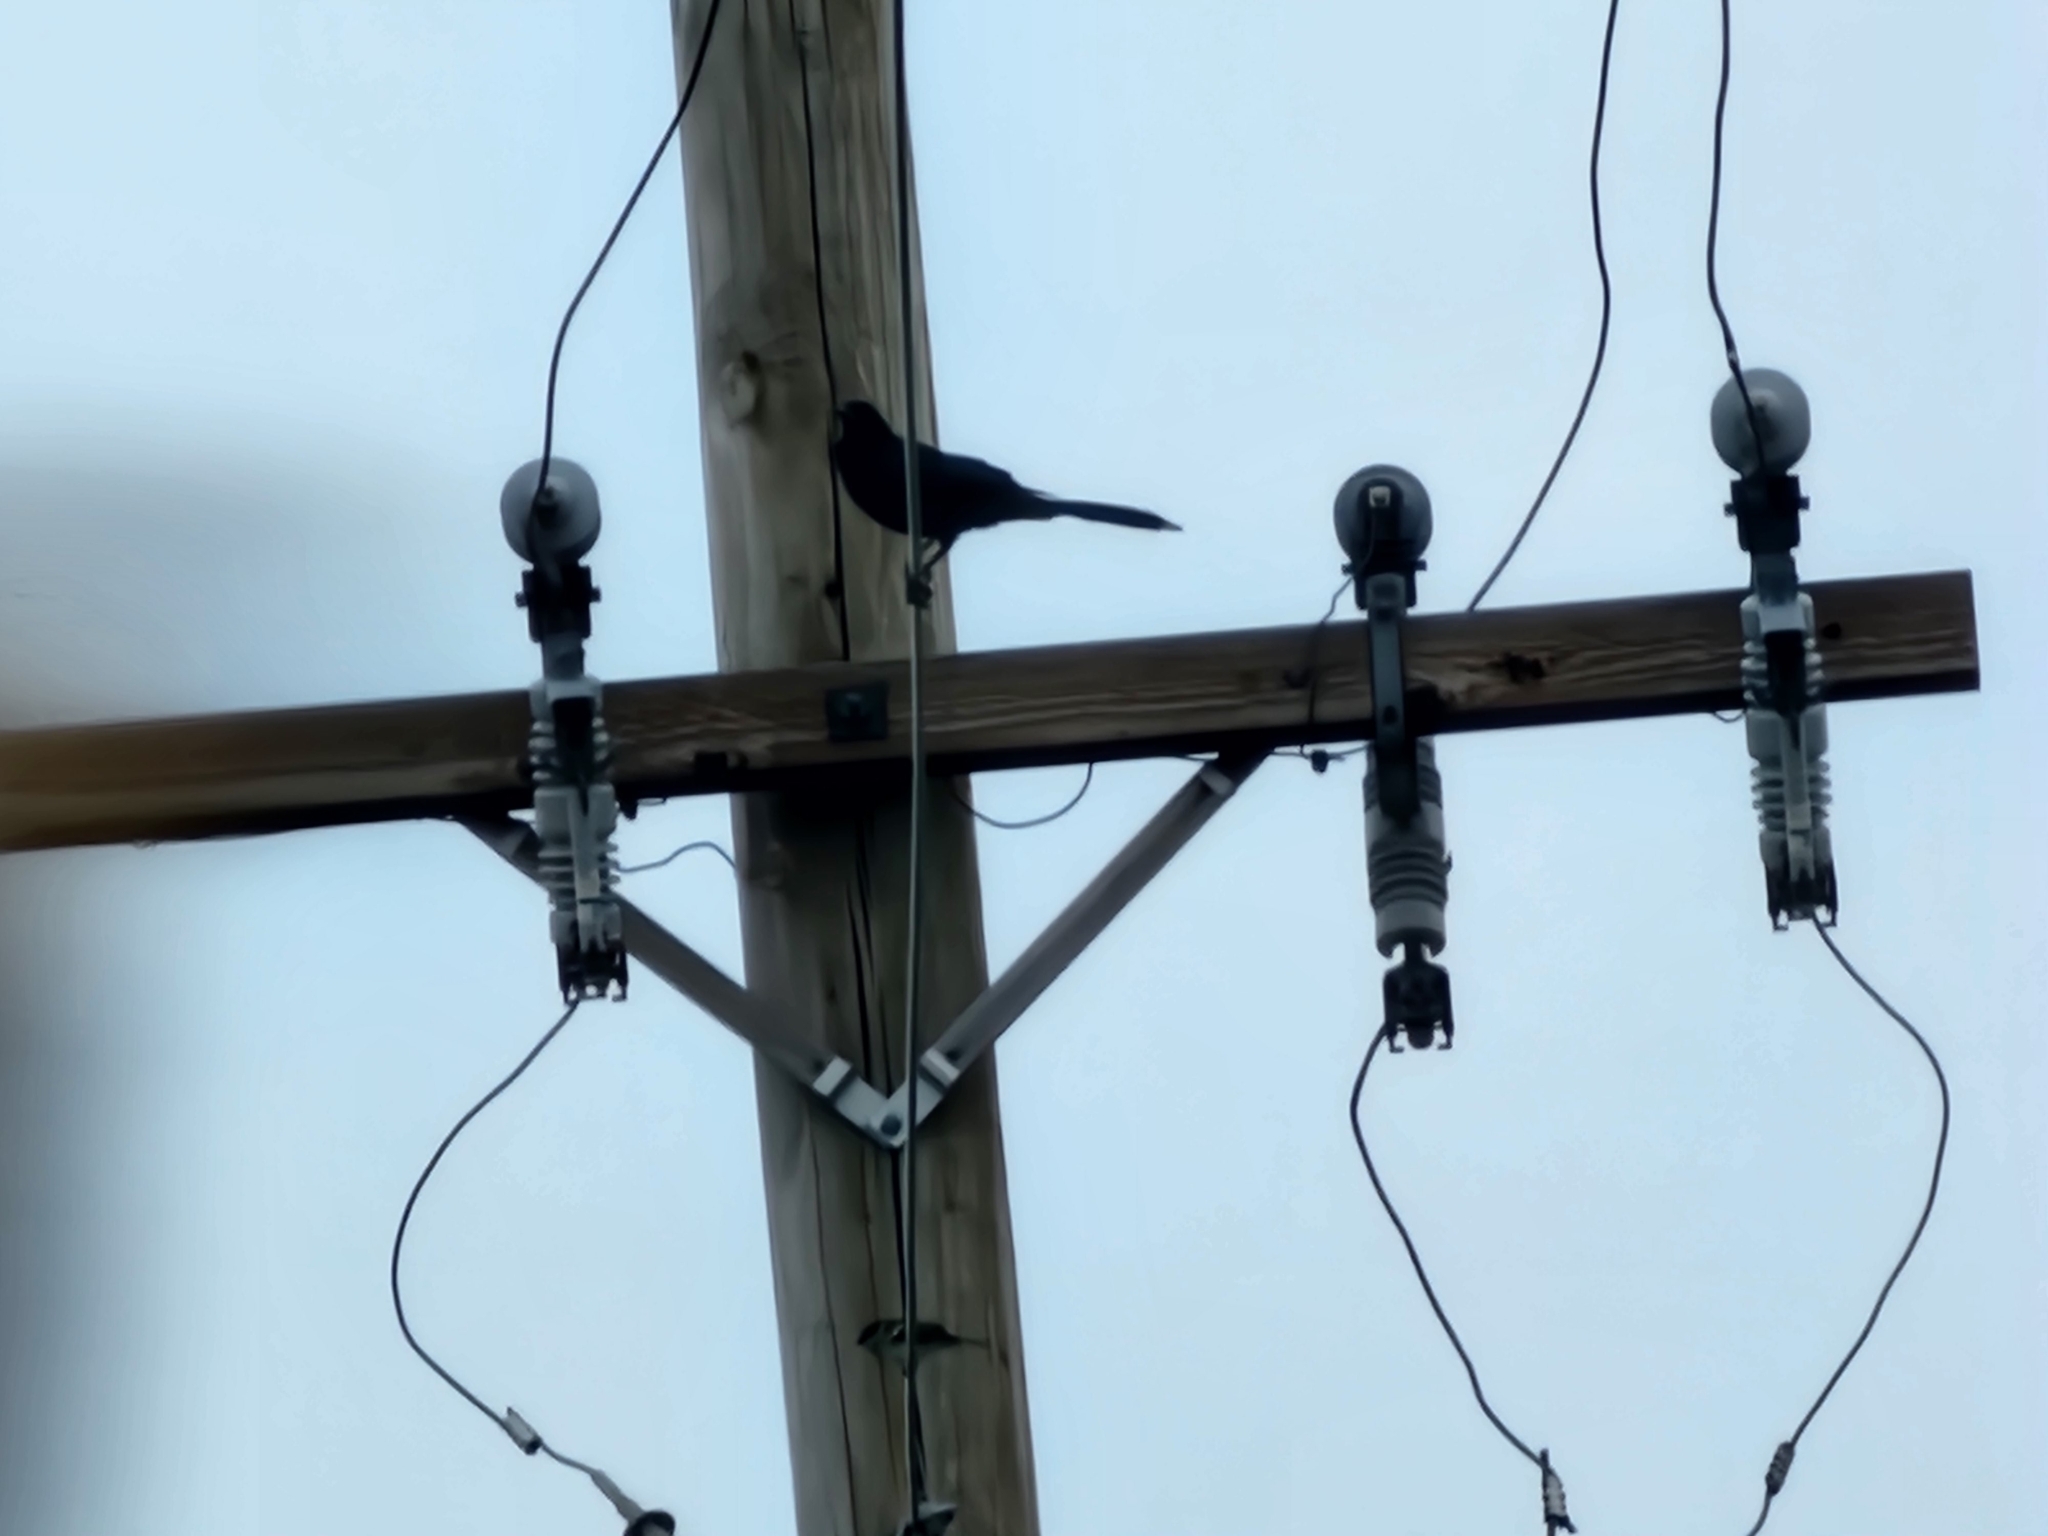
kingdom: Animalia
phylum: Chordata
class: Aves
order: Passeriformes
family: Icteridae
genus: Quiscalus
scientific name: Quiscalus mexicanus
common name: Great-tailed grackle
